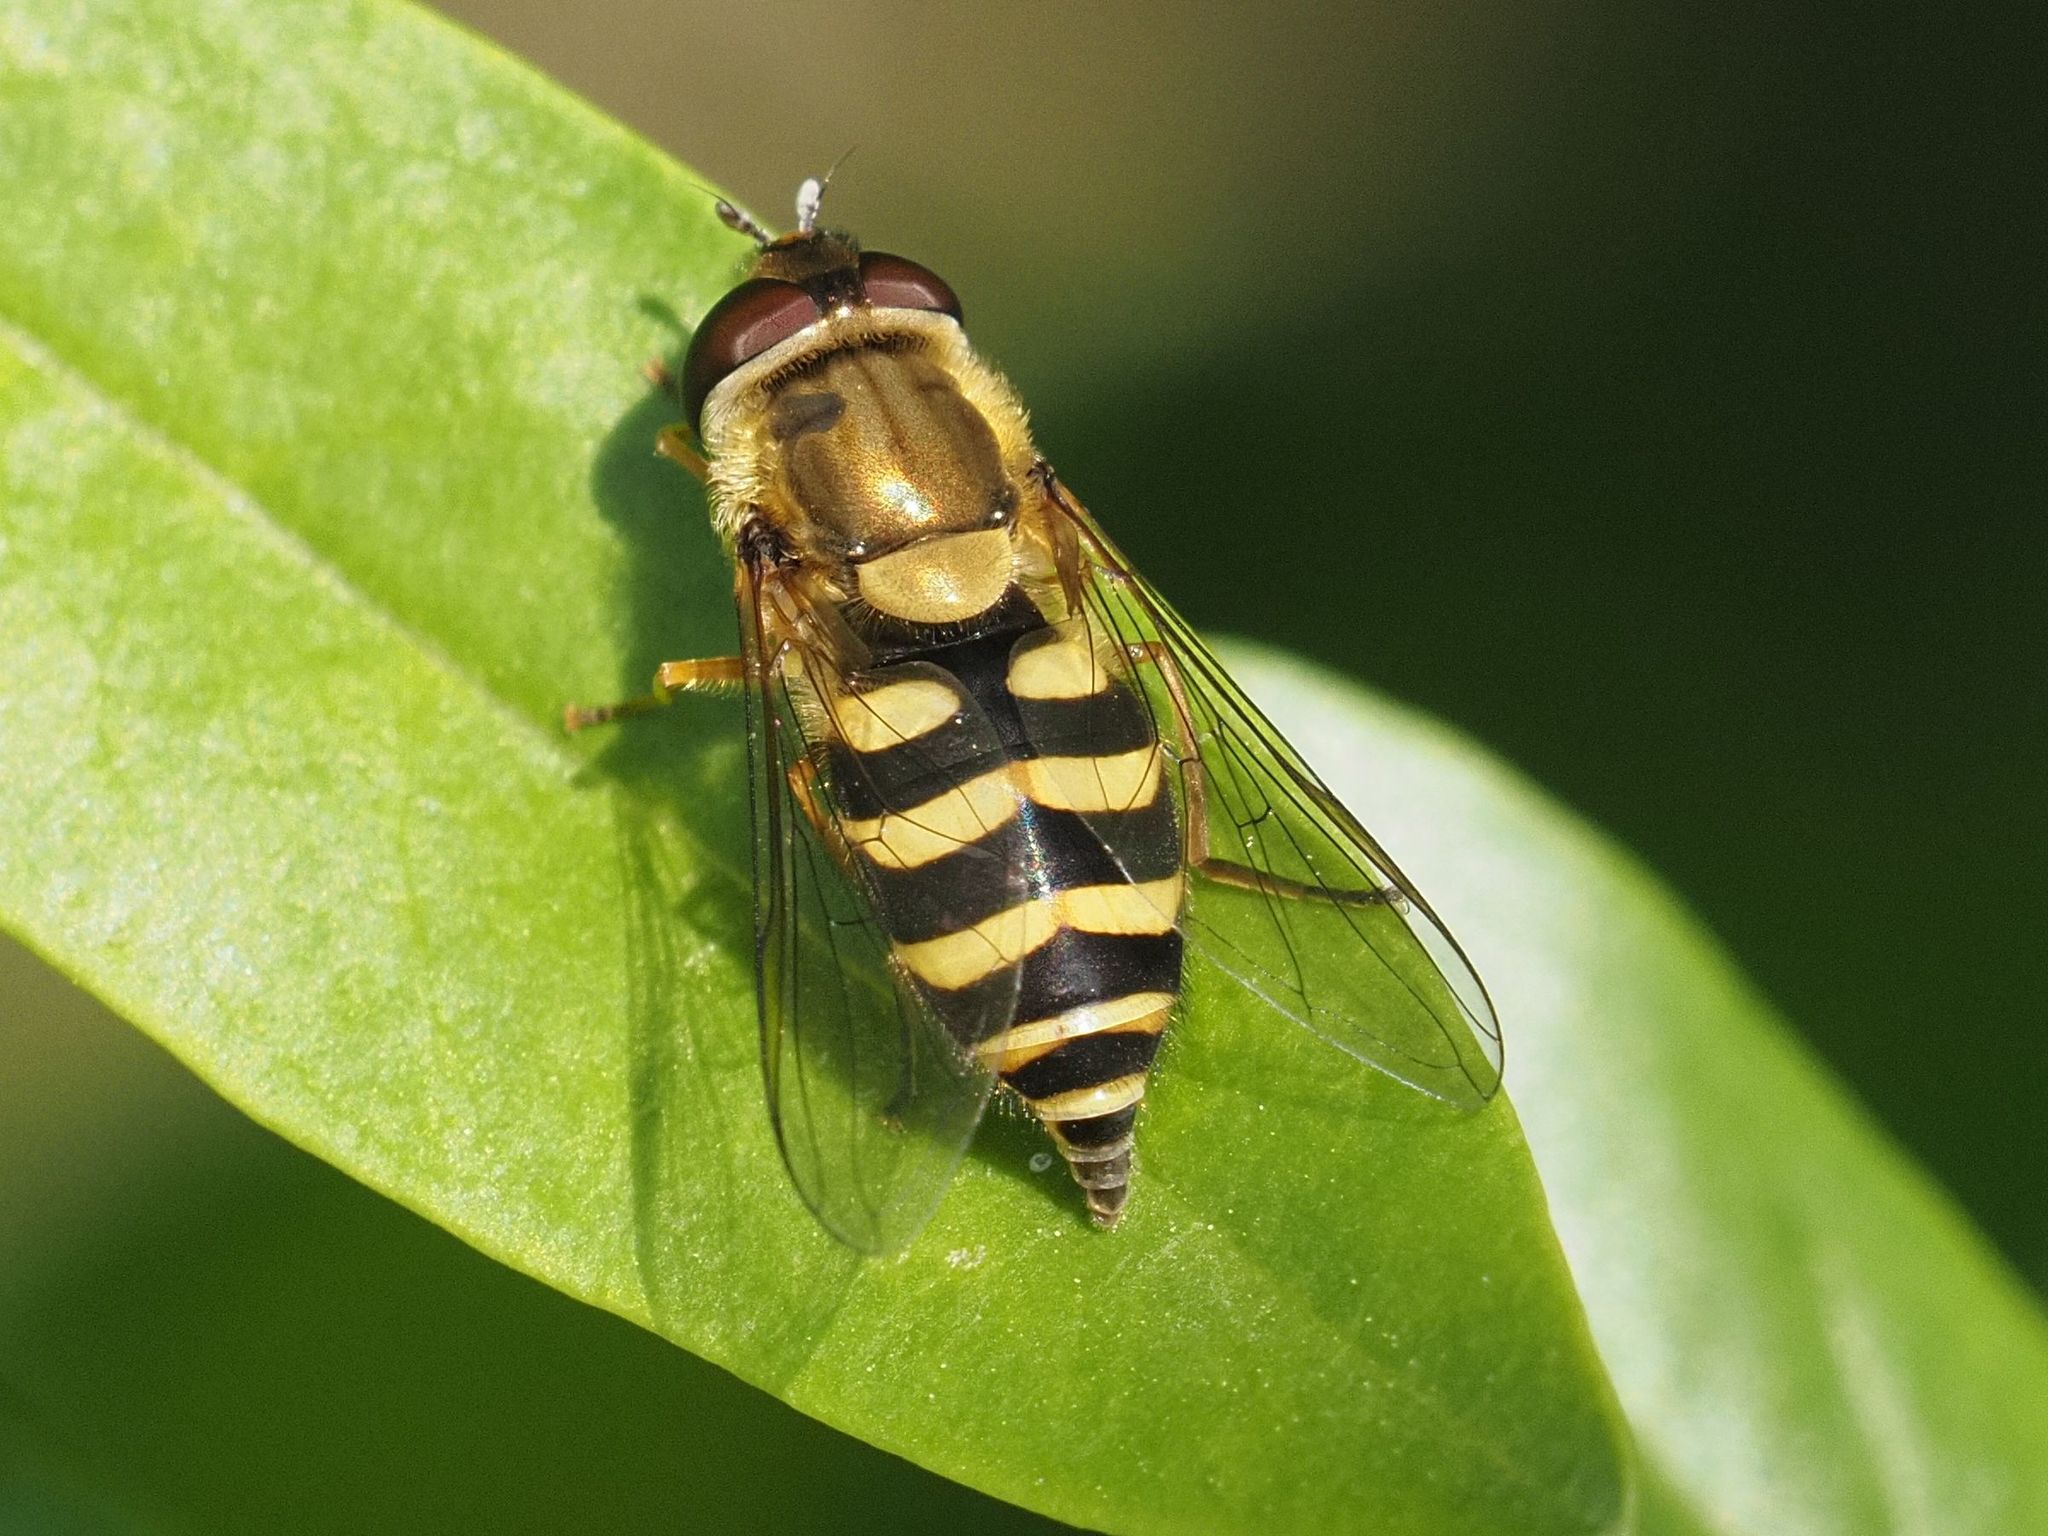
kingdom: Animalia
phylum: Arthropoda
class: Insecta
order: Diptera
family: Syrphidae
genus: Syrphus
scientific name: Syrphus
